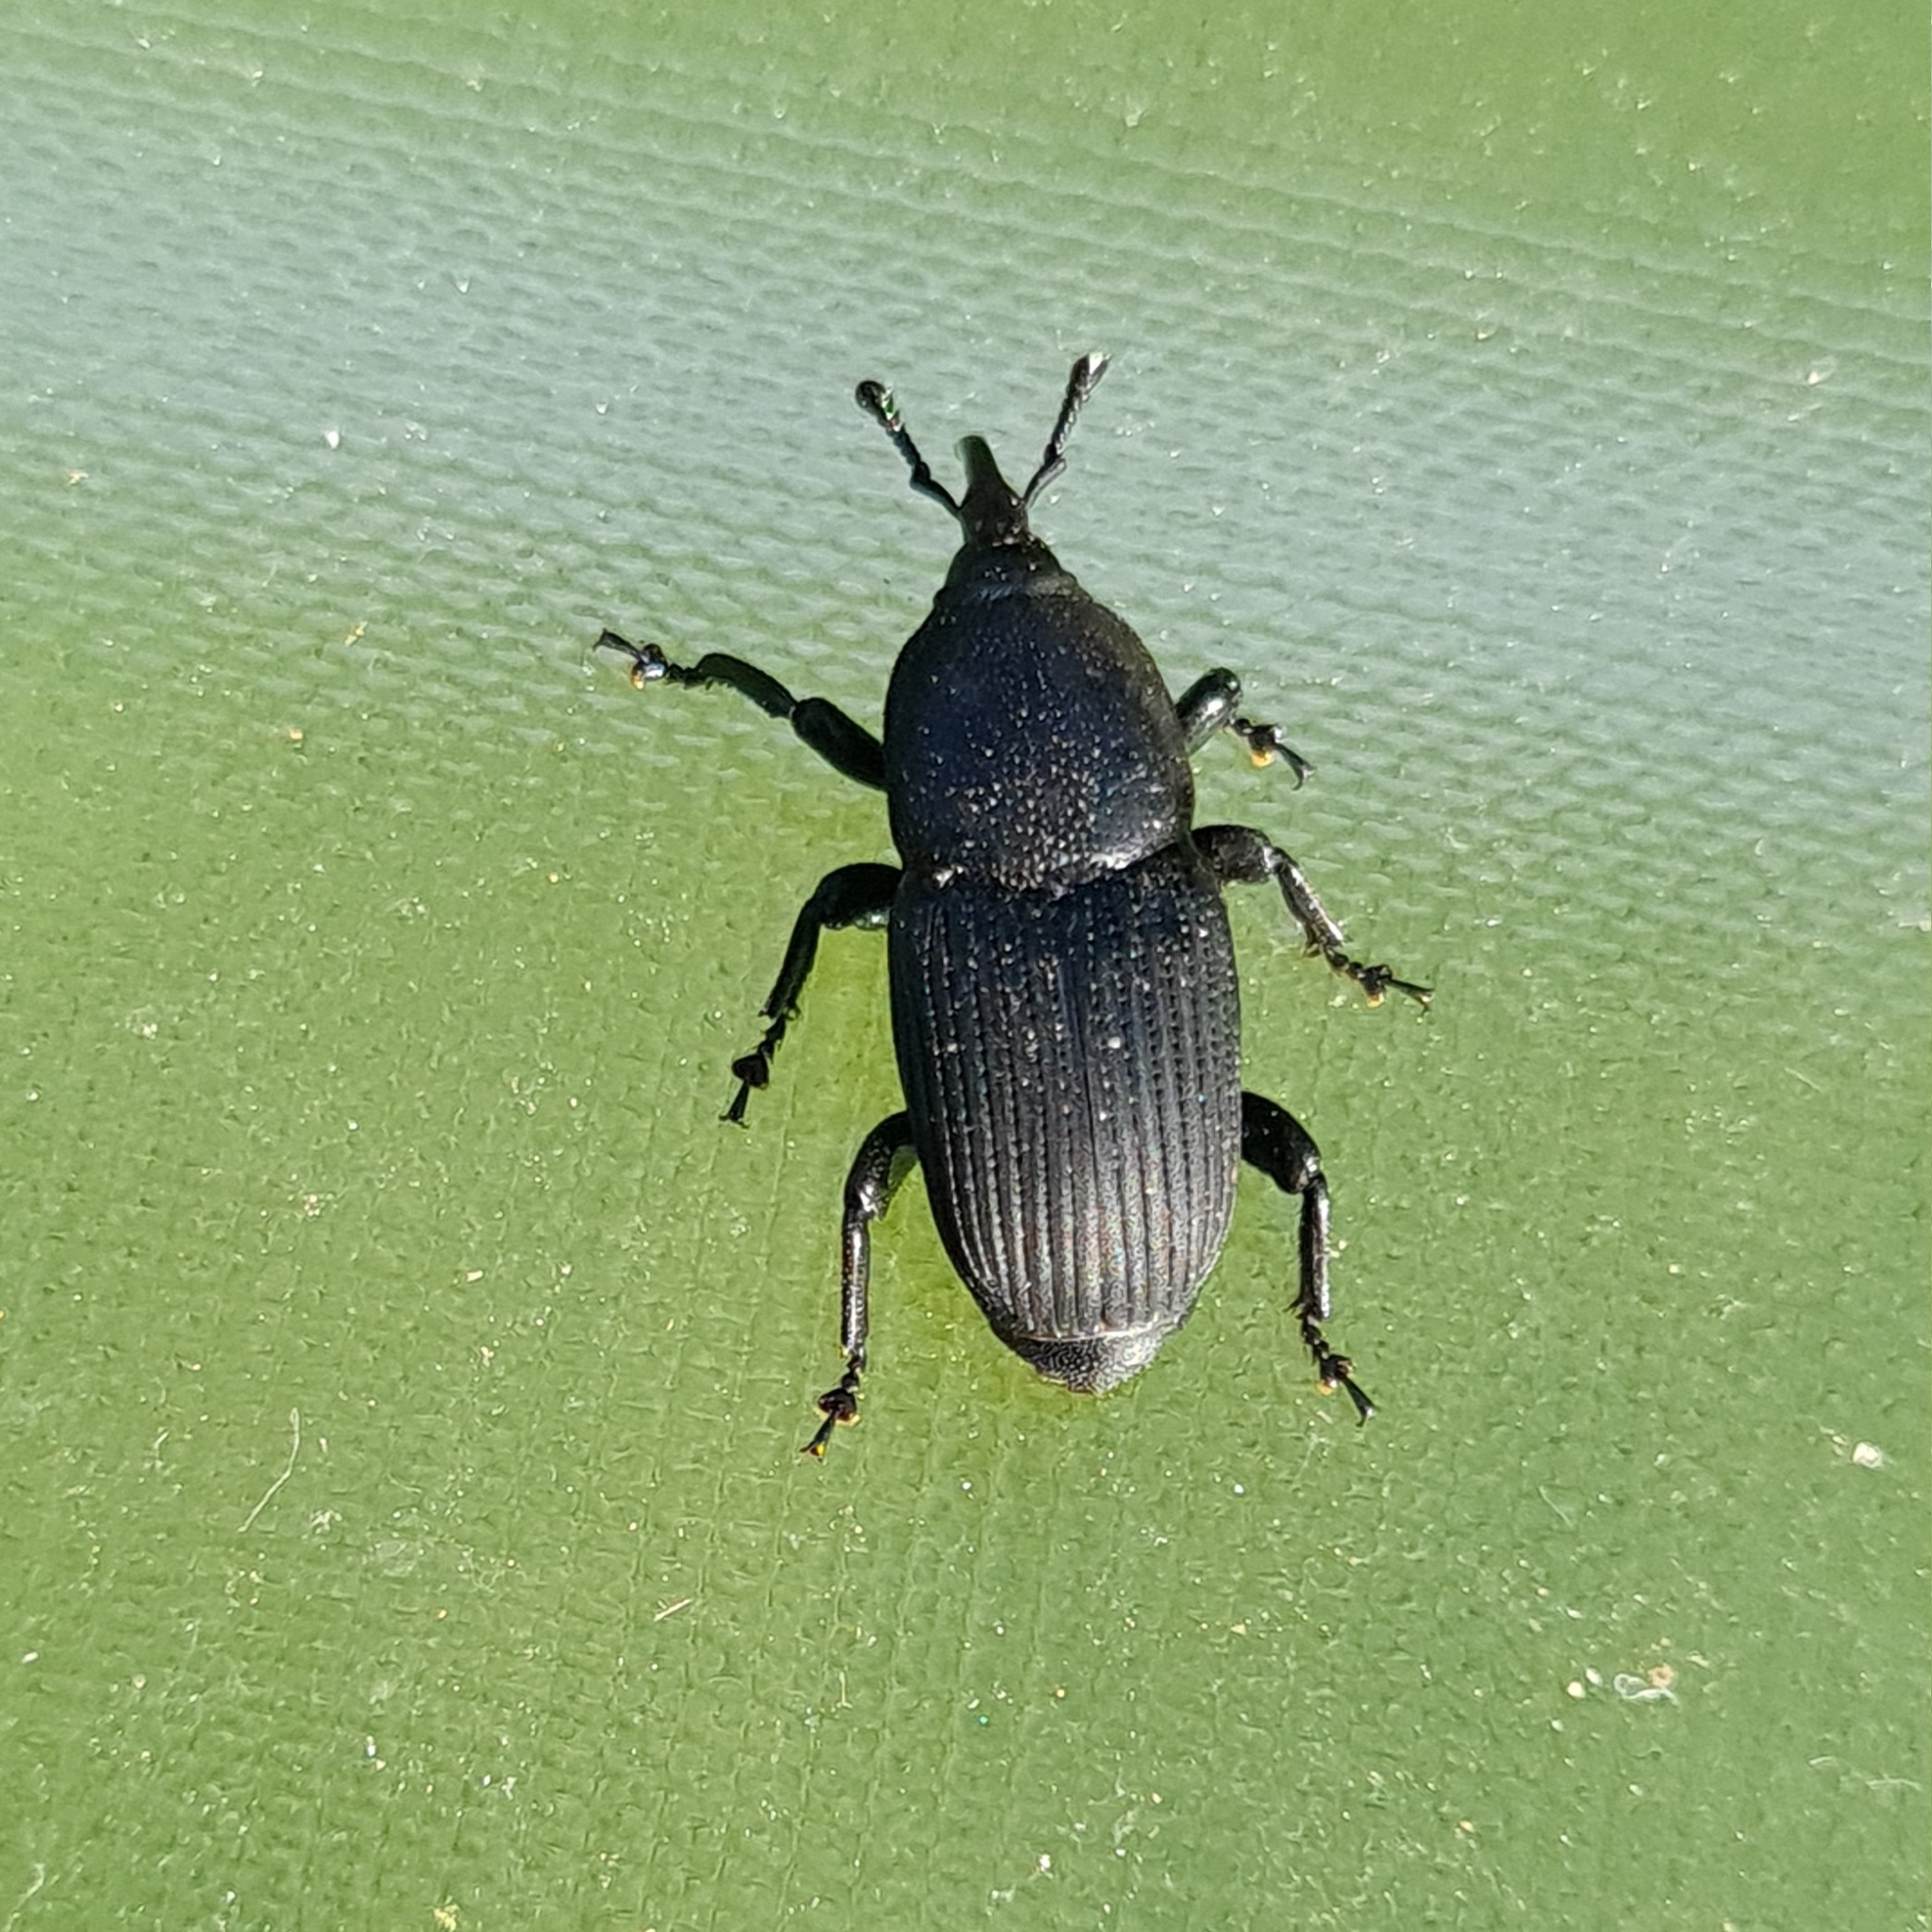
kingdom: Animalia
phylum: Arthropoda
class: Insecta
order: Coleoptera
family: Dryophthoridae
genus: Scyphophorus
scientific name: Scyphophorus acupunctatus
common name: Weevil
